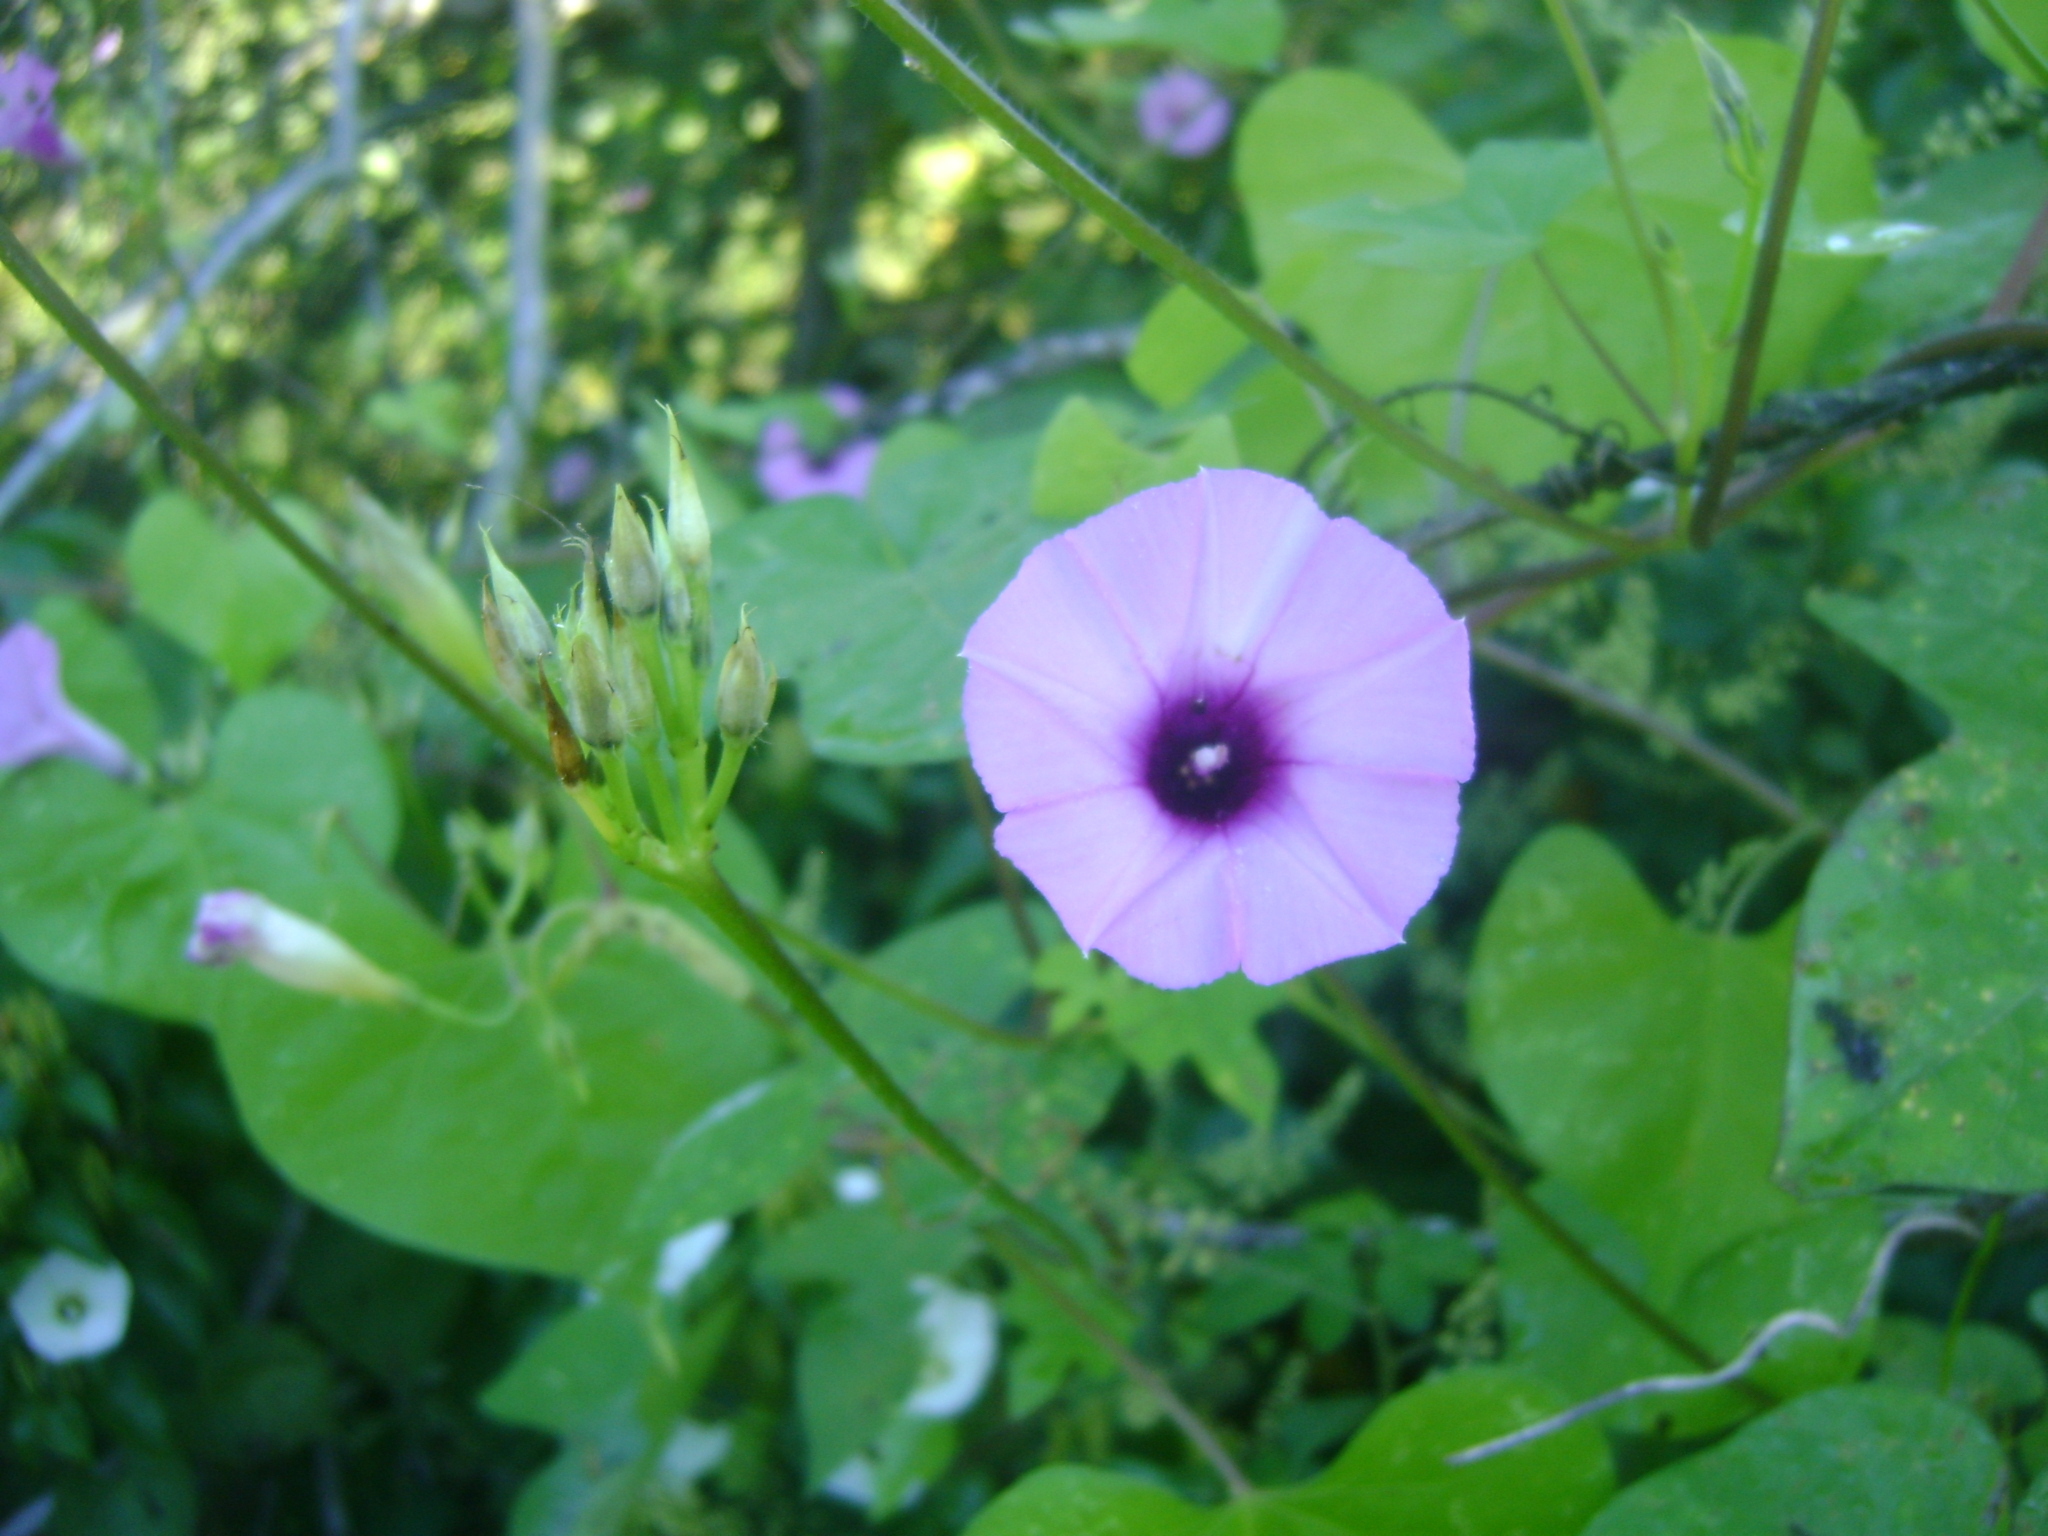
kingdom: Plantae
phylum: Tracheophyta
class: Magnoliopsida
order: Solanales
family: Convolvulaceae
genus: Ipomoea
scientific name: Ipomoea batatas
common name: Sweet-potato
